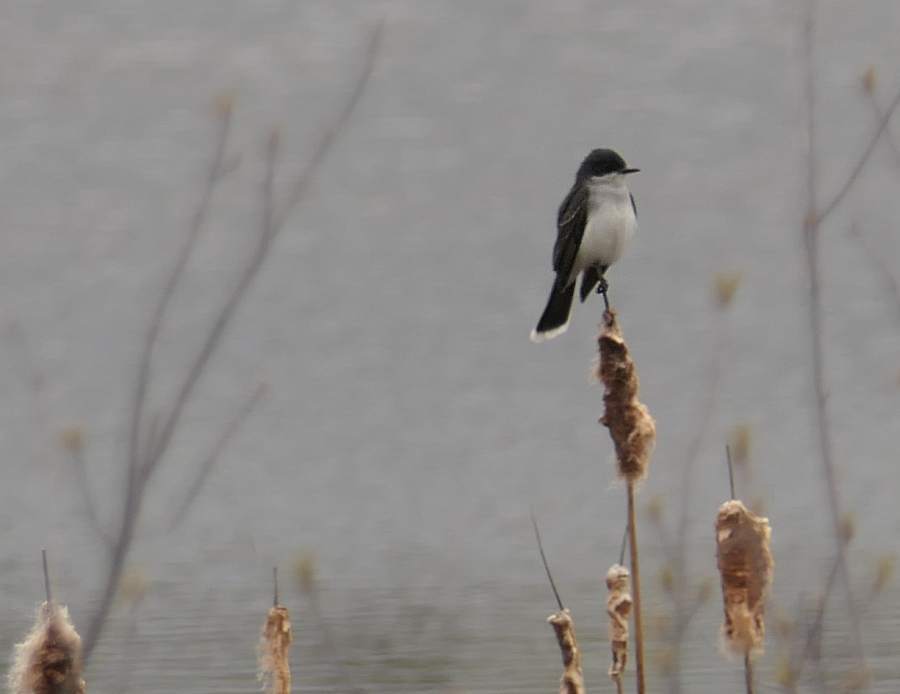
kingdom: Animalia
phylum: Chordata
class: Aves
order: Passeriformes
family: Tyrannidae
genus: Tyrannus
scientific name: Tyrannus tyrannus
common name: Eastern kingbird
